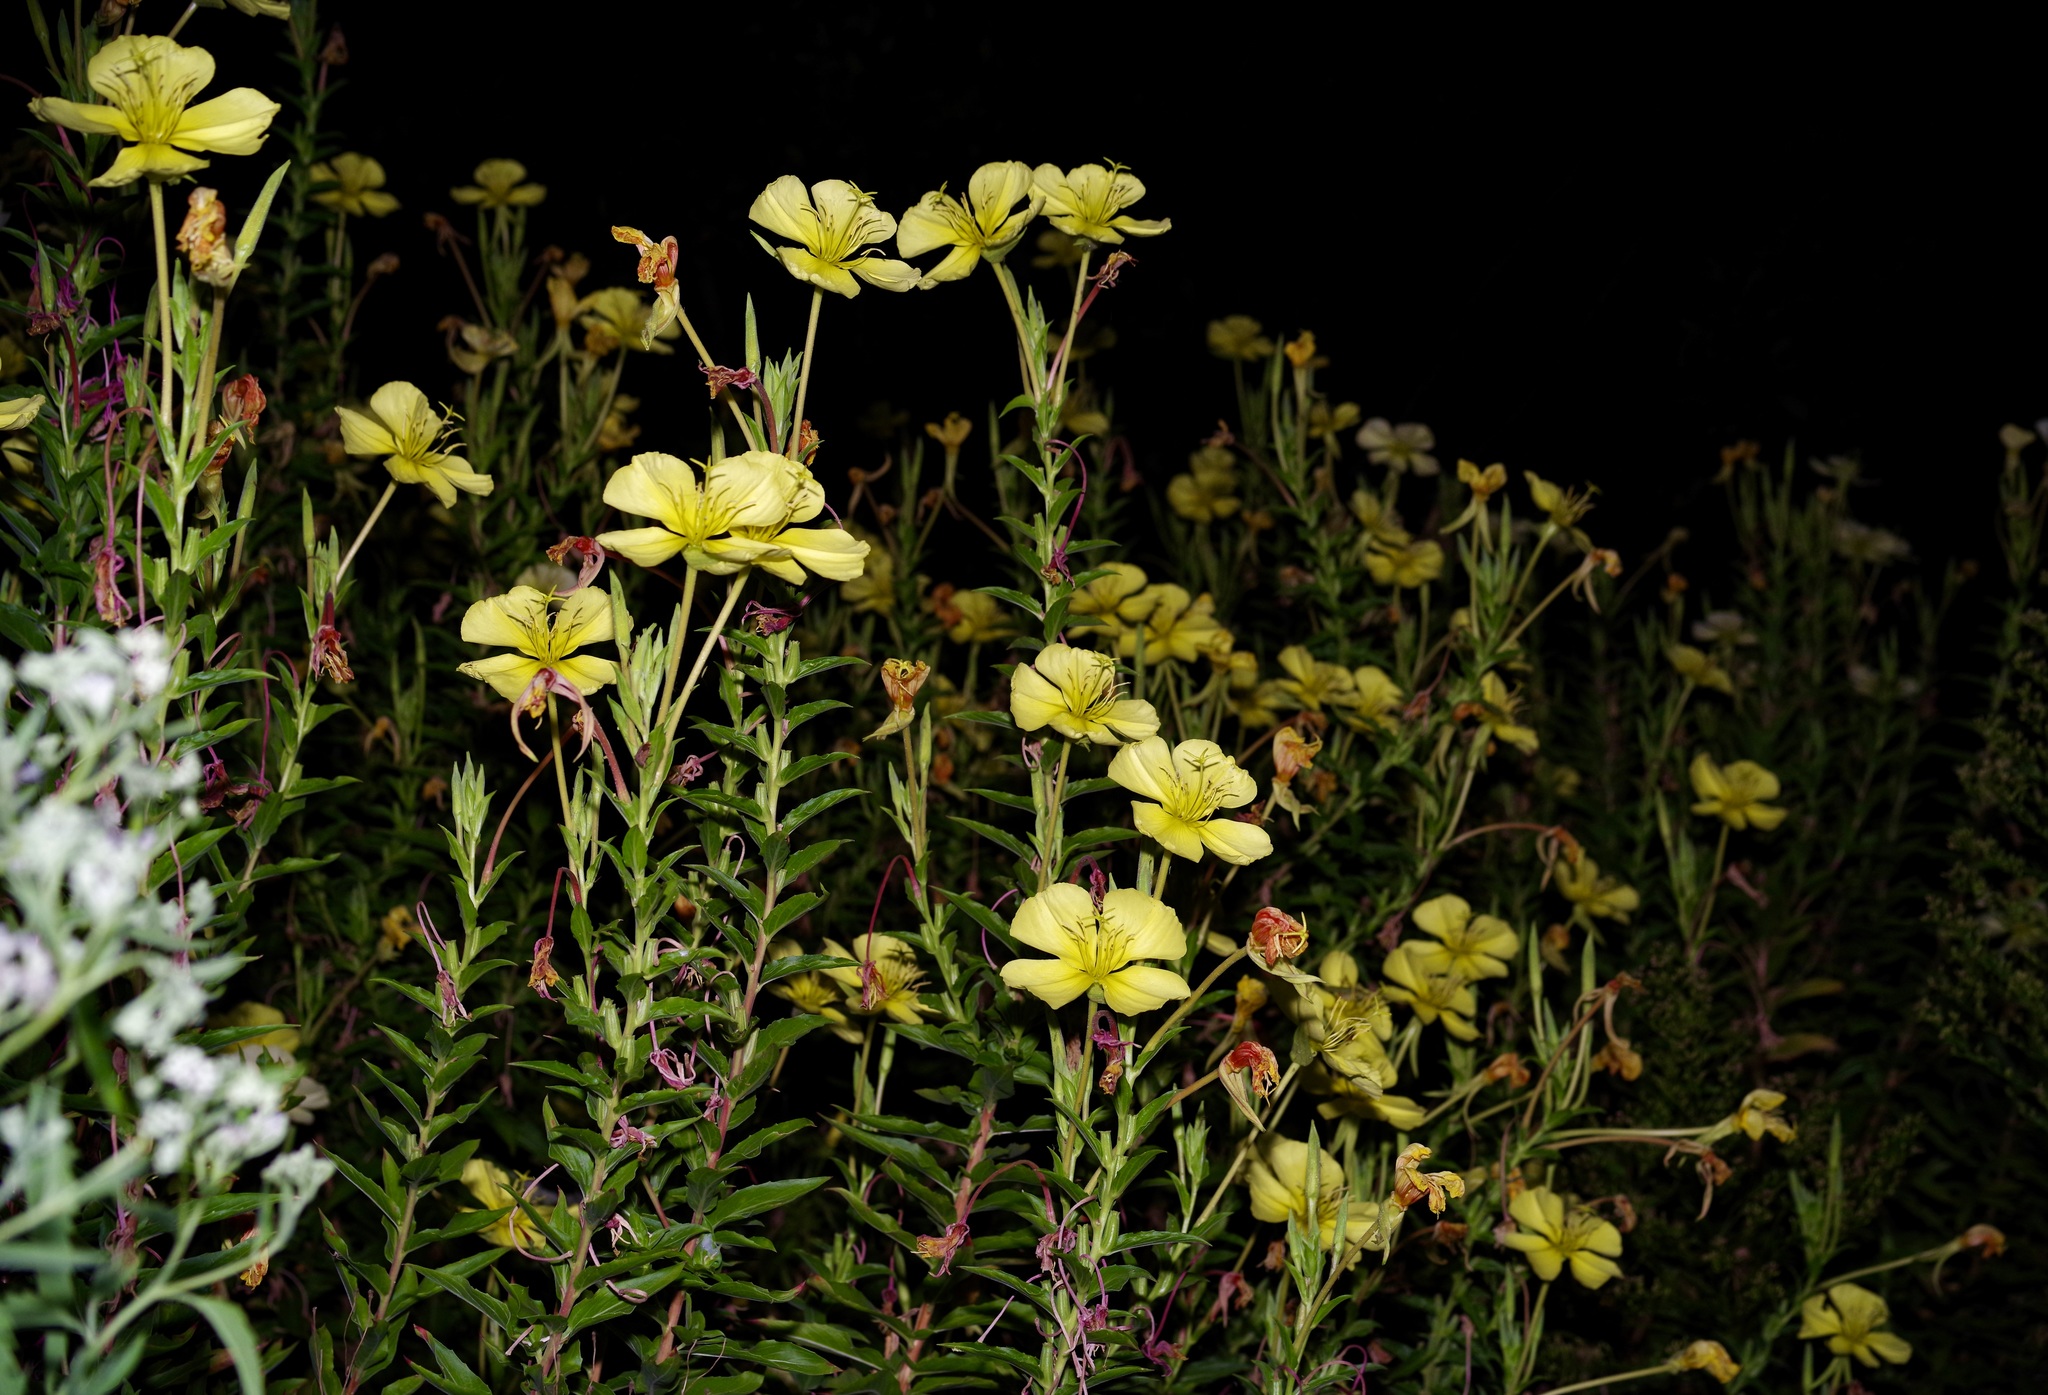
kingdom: Plantae
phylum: Tracheophyta
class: Magnoliopsida
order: Myrtales
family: Onagraceae
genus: Oenothera
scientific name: Oenothera jamesii
